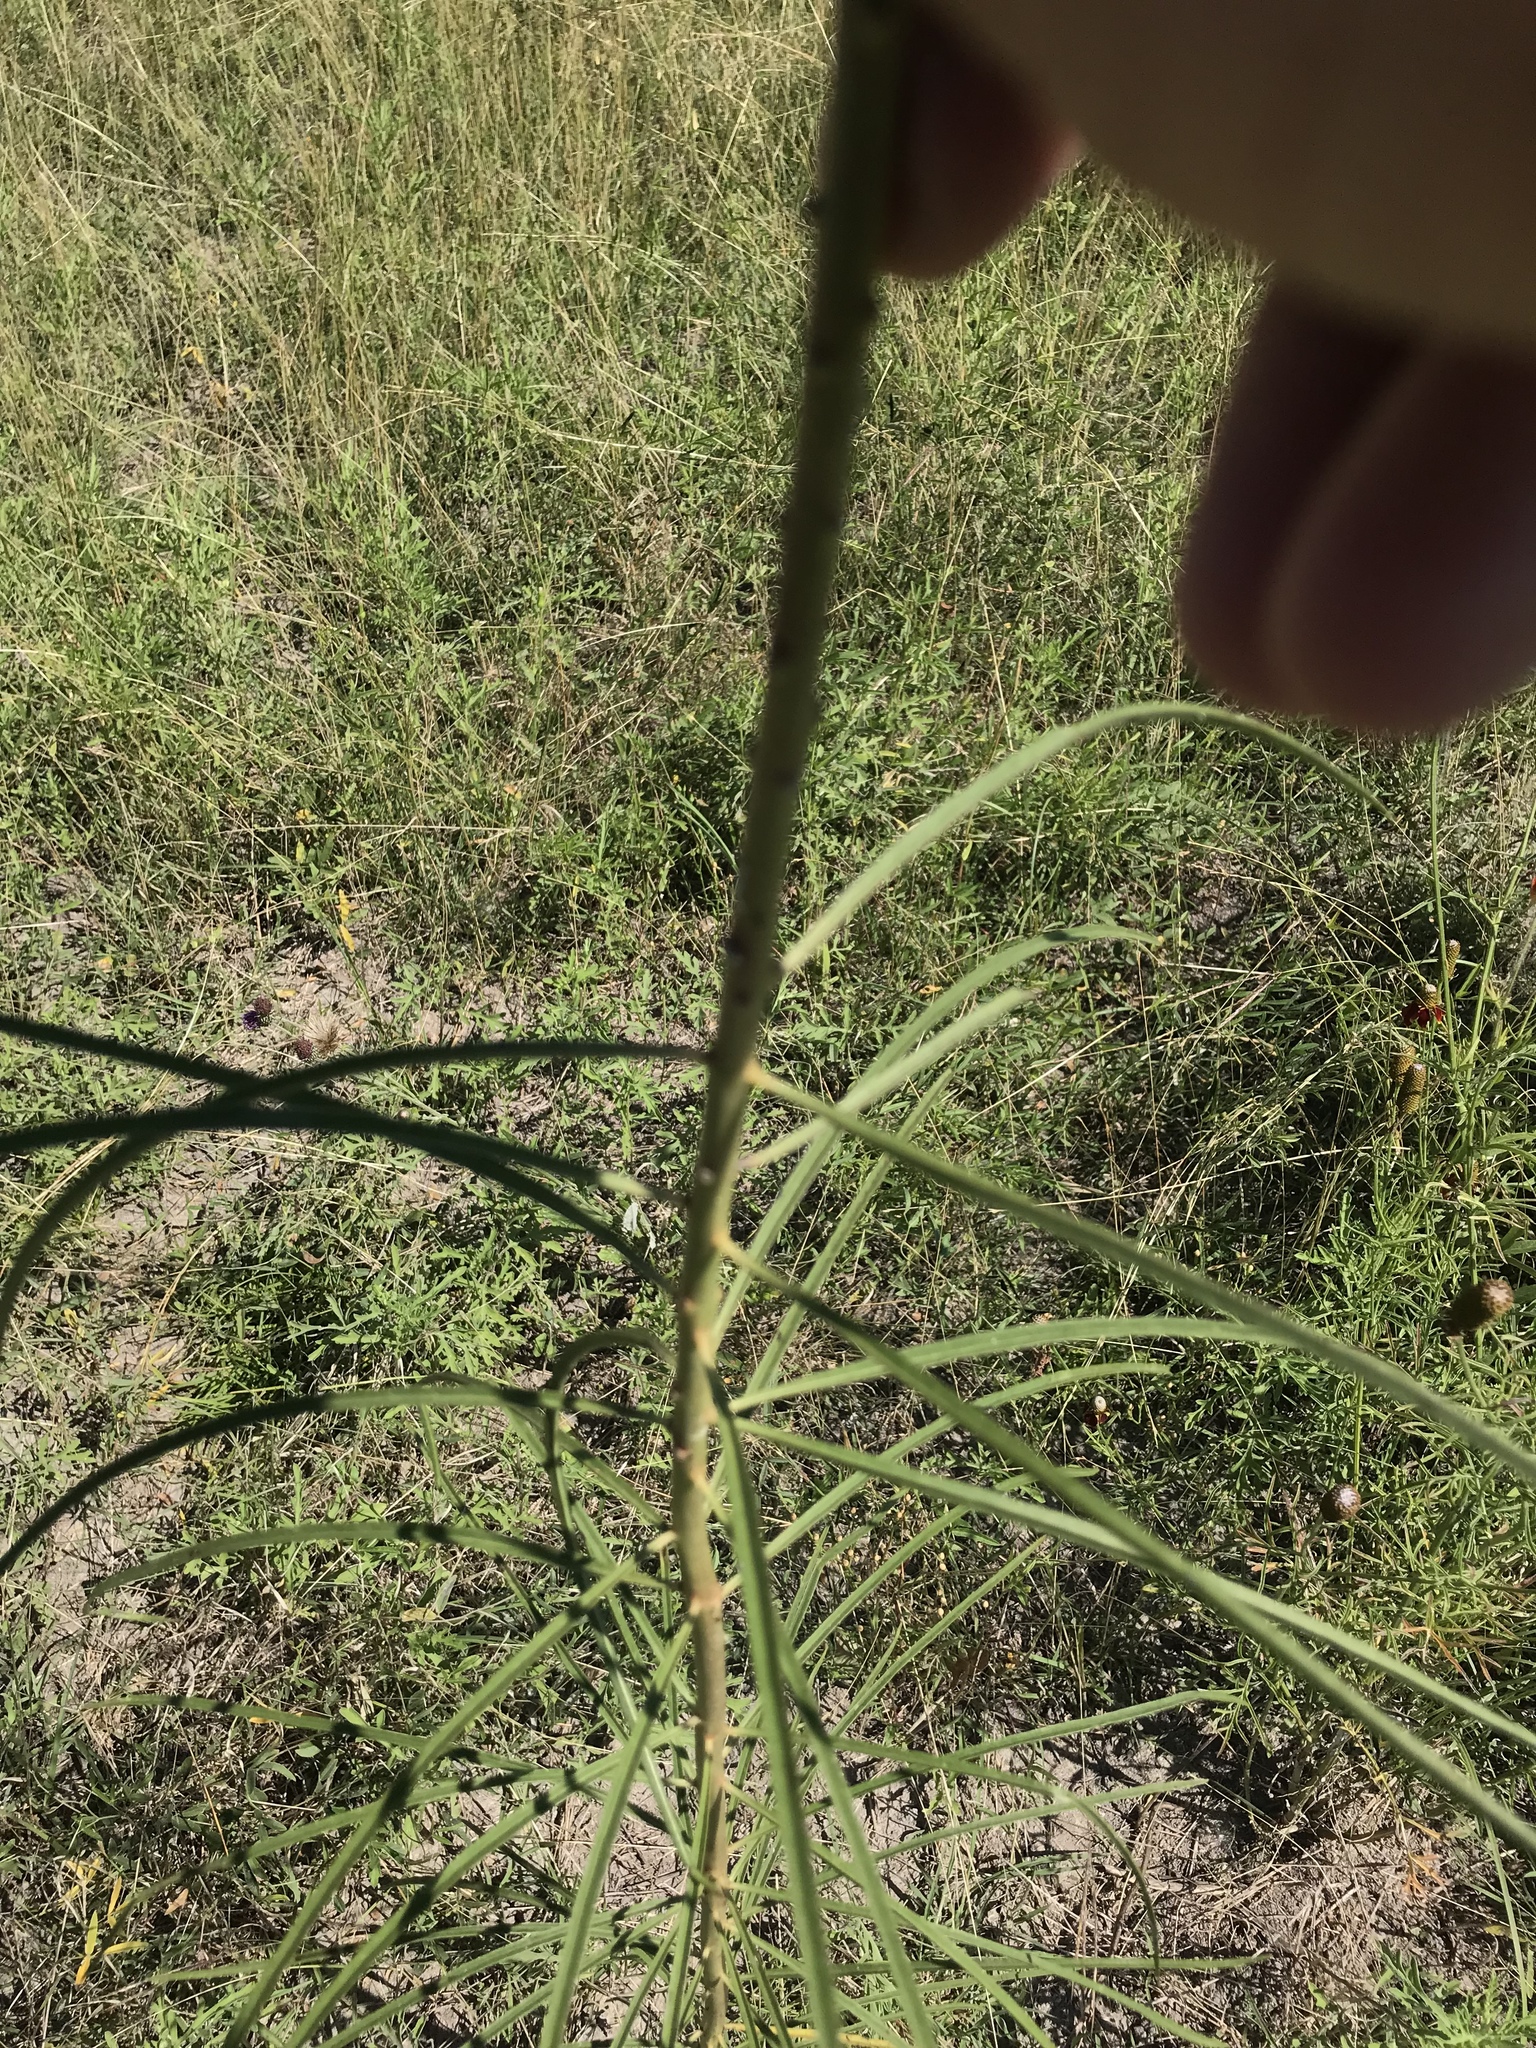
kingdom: Plantae
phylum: Tracheophyta
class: Magnoliopsida
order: Gentianales
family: Apocynaceae
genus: Asclepias
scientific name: Asclepias engelmanniana
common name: Engelmann's milkweed
